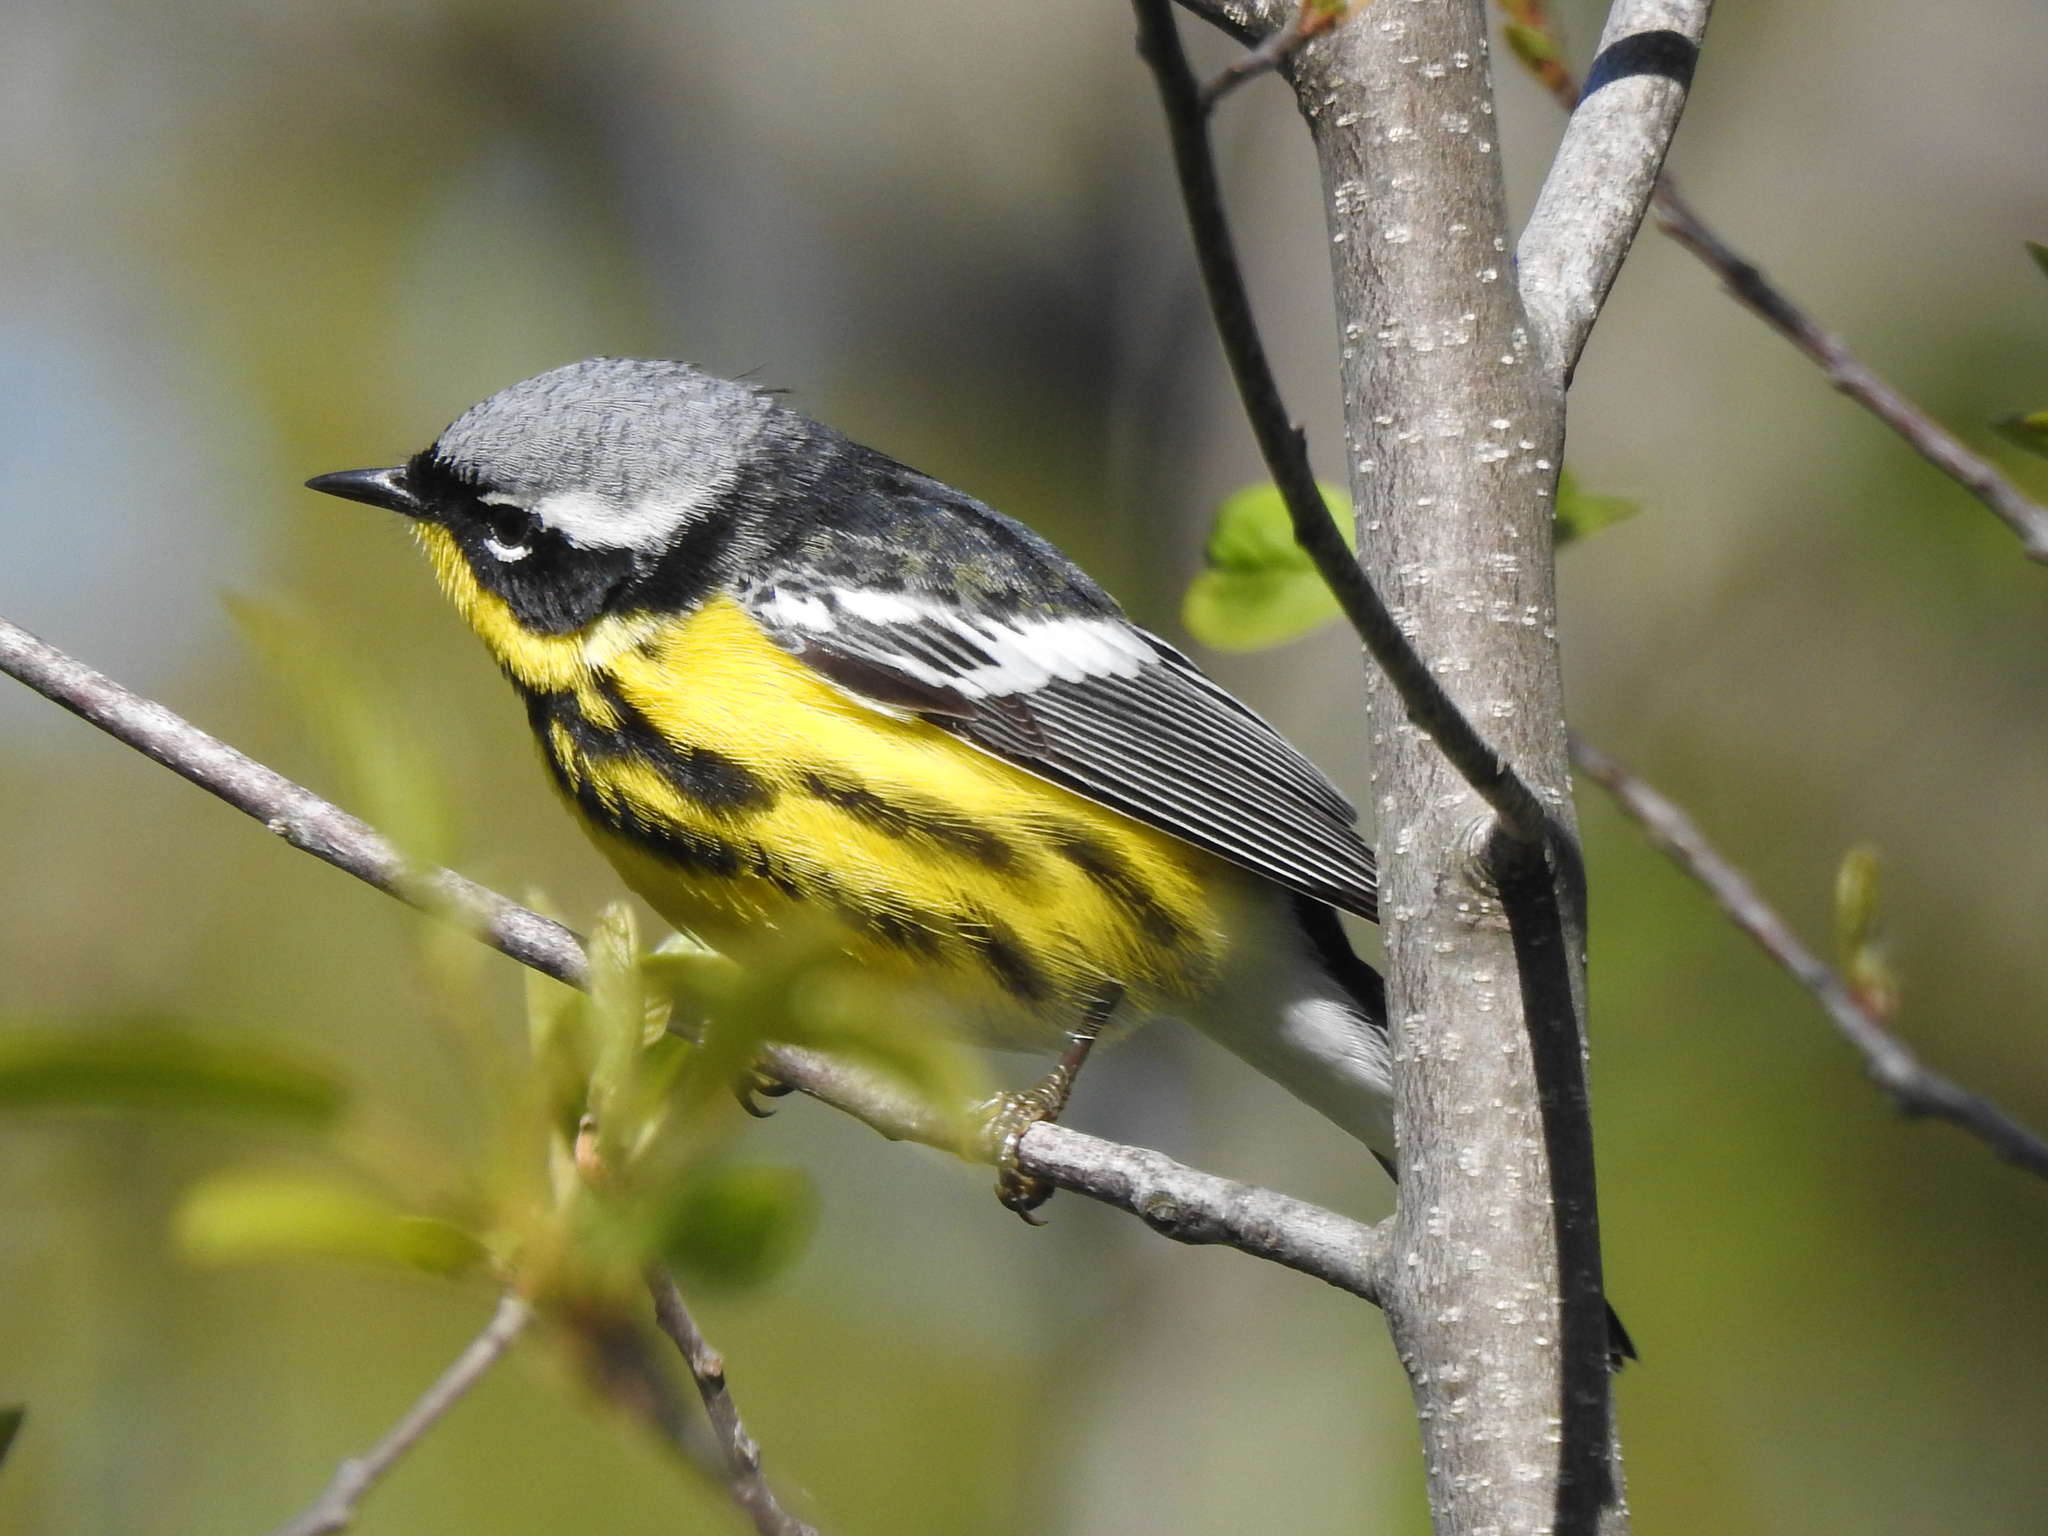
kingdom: Animalia
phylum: Chordata
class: Aves
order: Passeriformes
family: Parulidae
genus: Setophaga
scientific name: Setophaga magnolia
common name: Magnolia warbler
